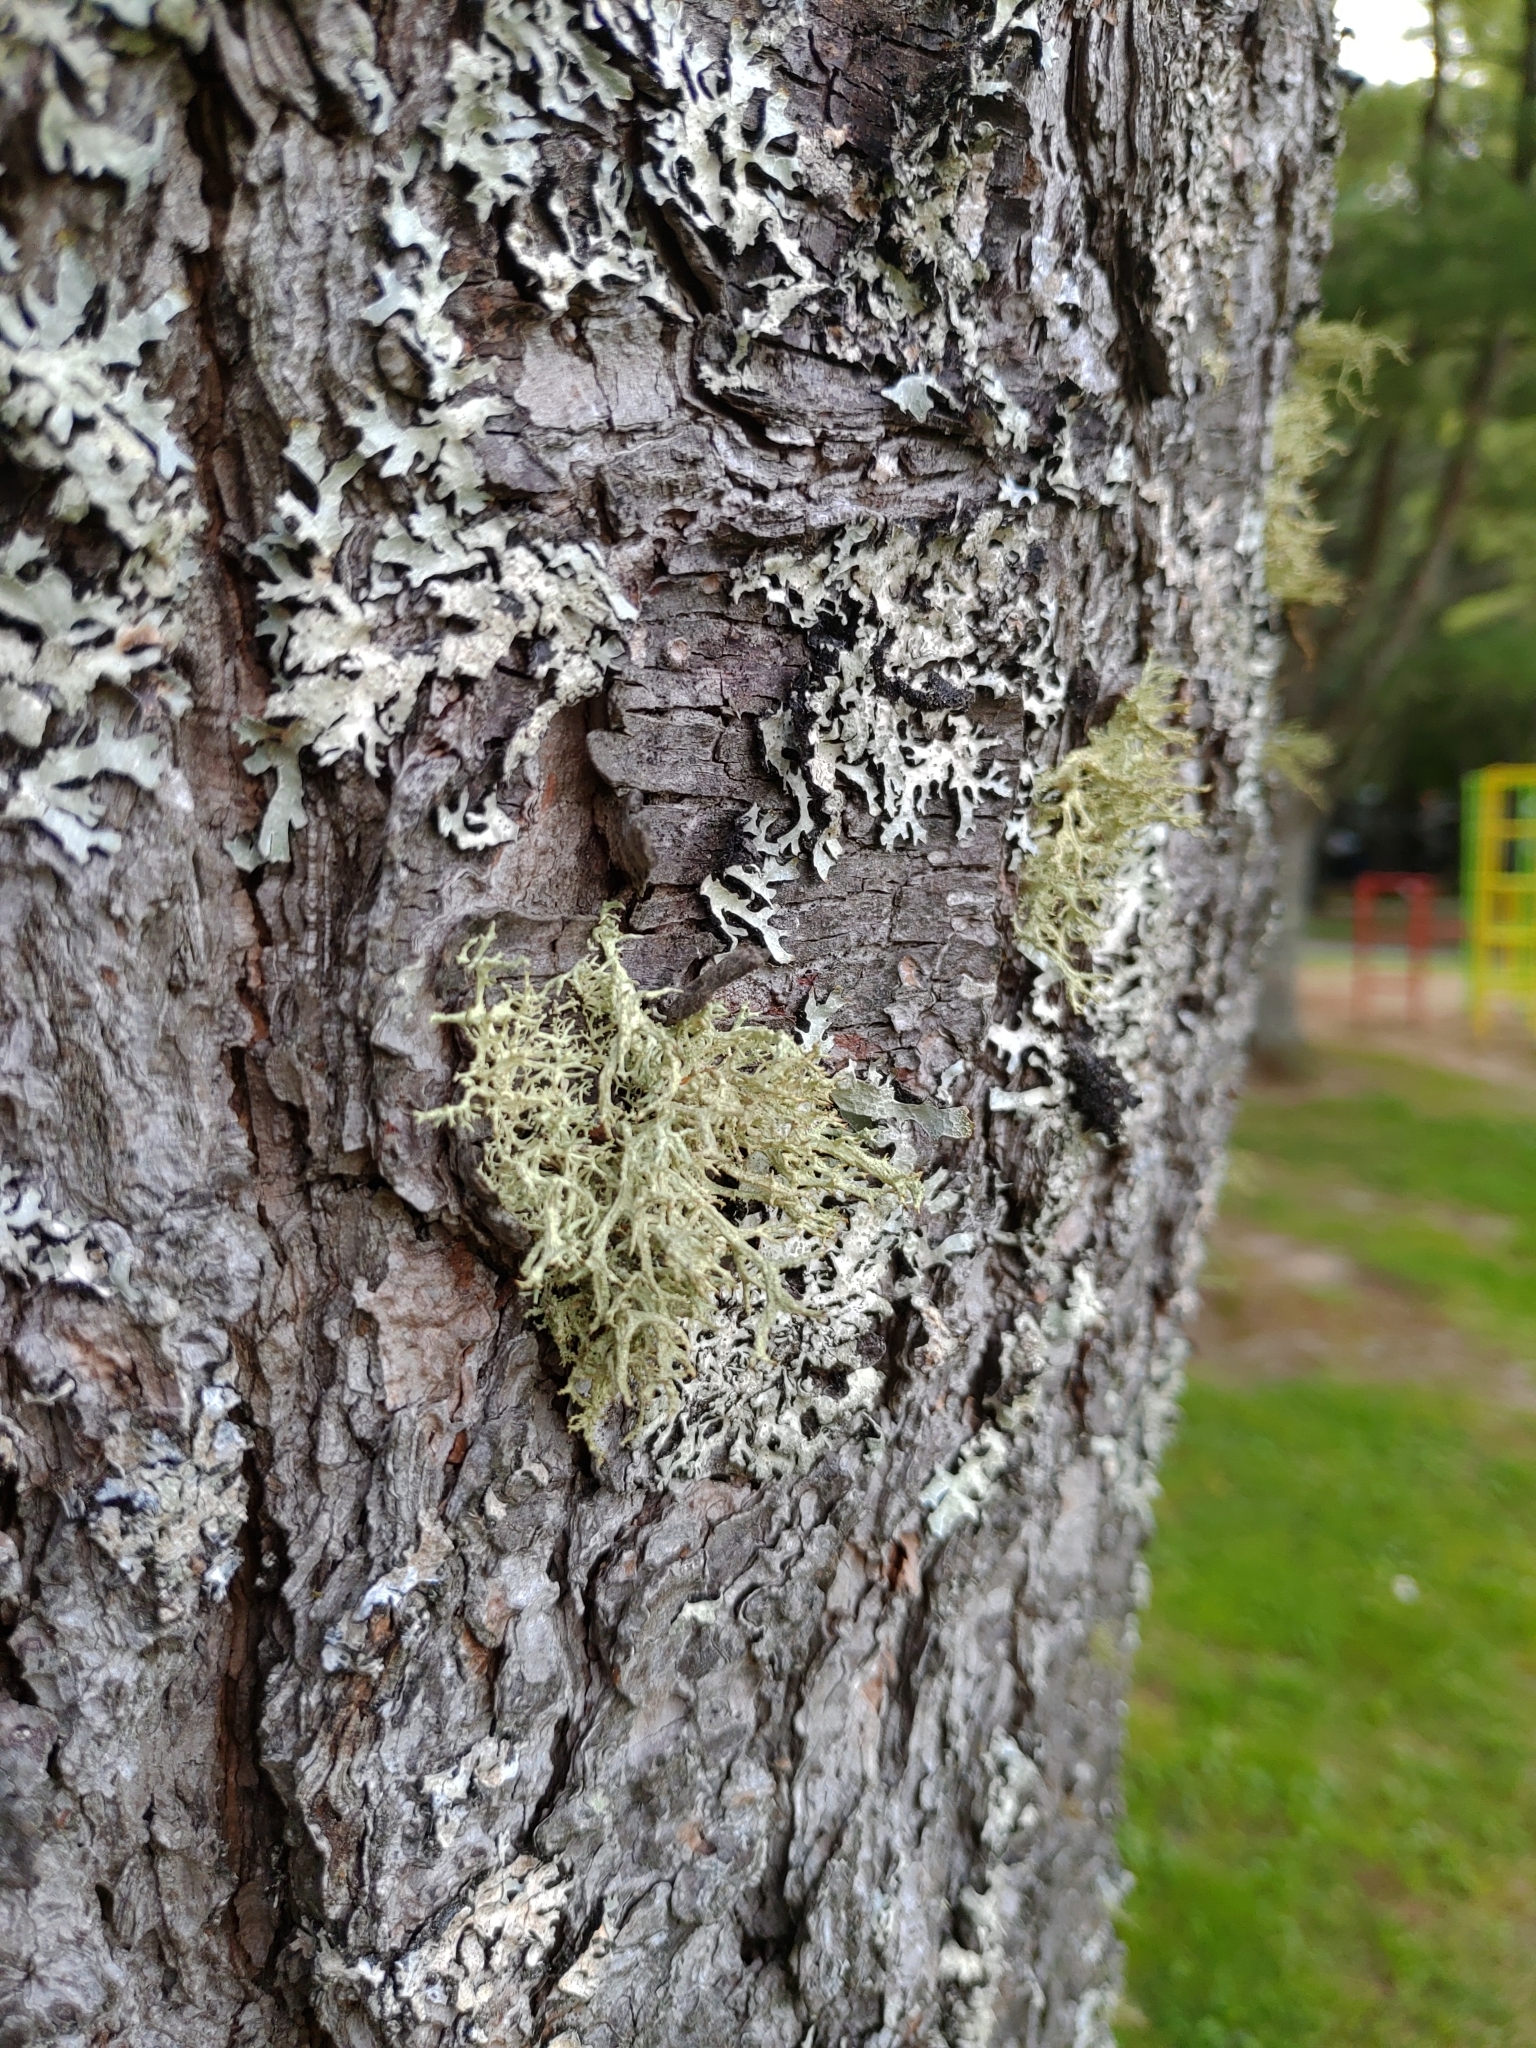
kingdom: Fungi
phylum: Ascomycota
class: Lecanoromycetes
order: Lecanorales
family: Parmeliaceae
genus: Evernia
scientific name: Evernia mesomorpha
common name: Boreal oak moss lichen
